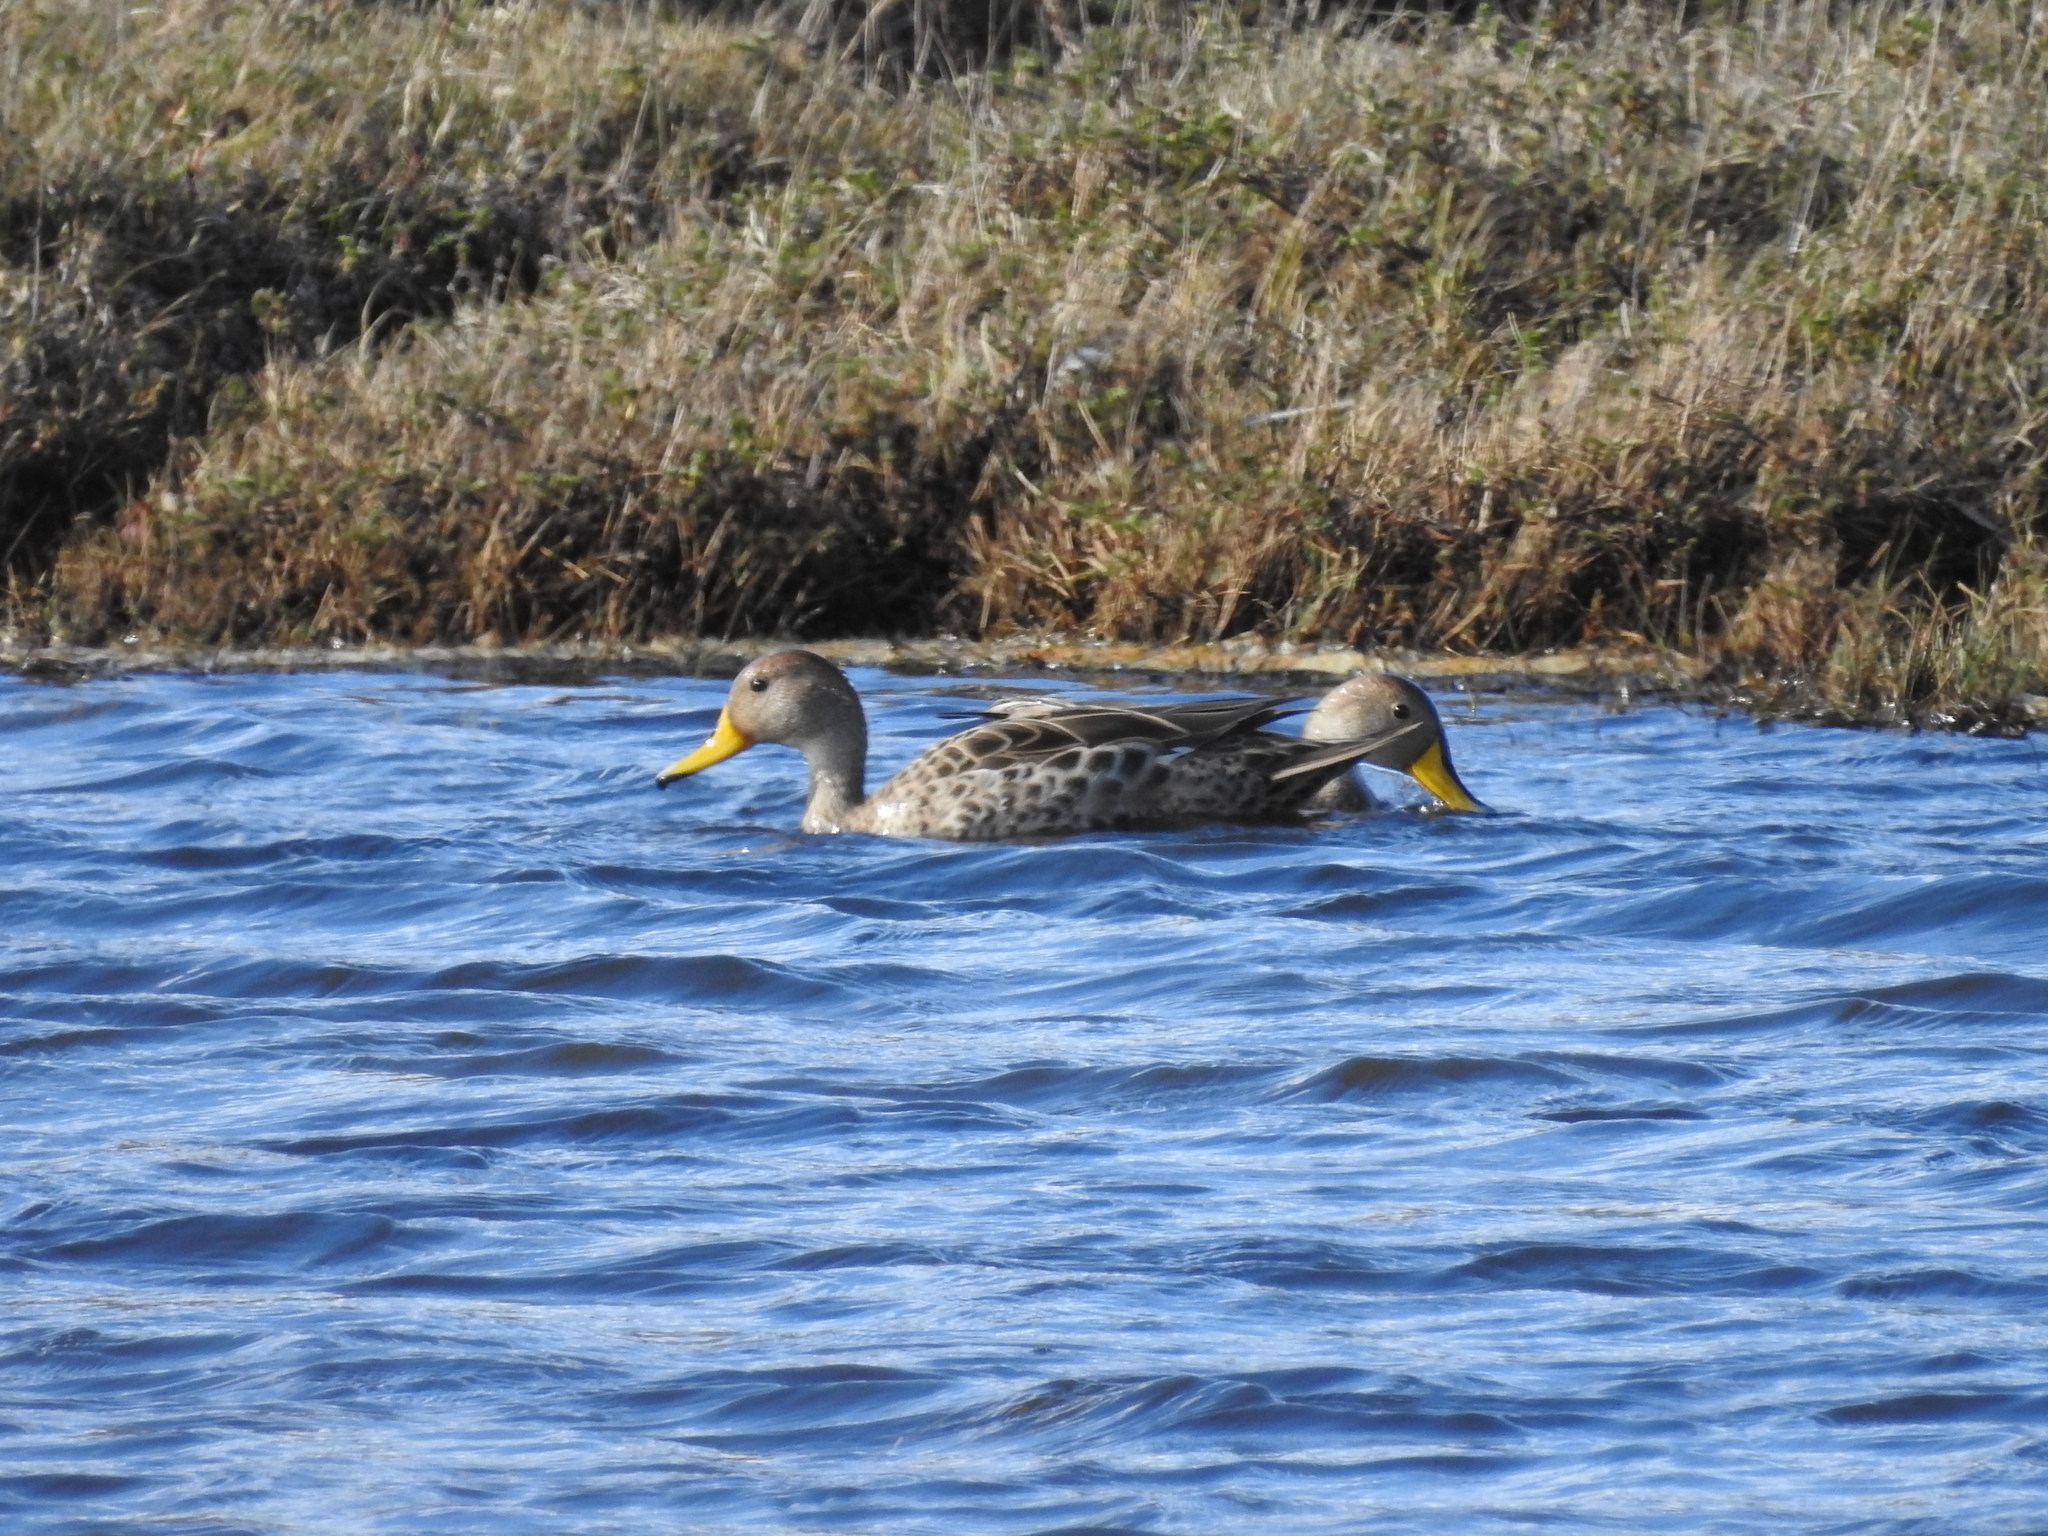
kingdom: Animalia
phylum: Chordata
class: Aves
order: Anseriformes
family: Anatidae
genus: Anas
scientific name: Anas georgica
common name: Yellow-billed pintail
